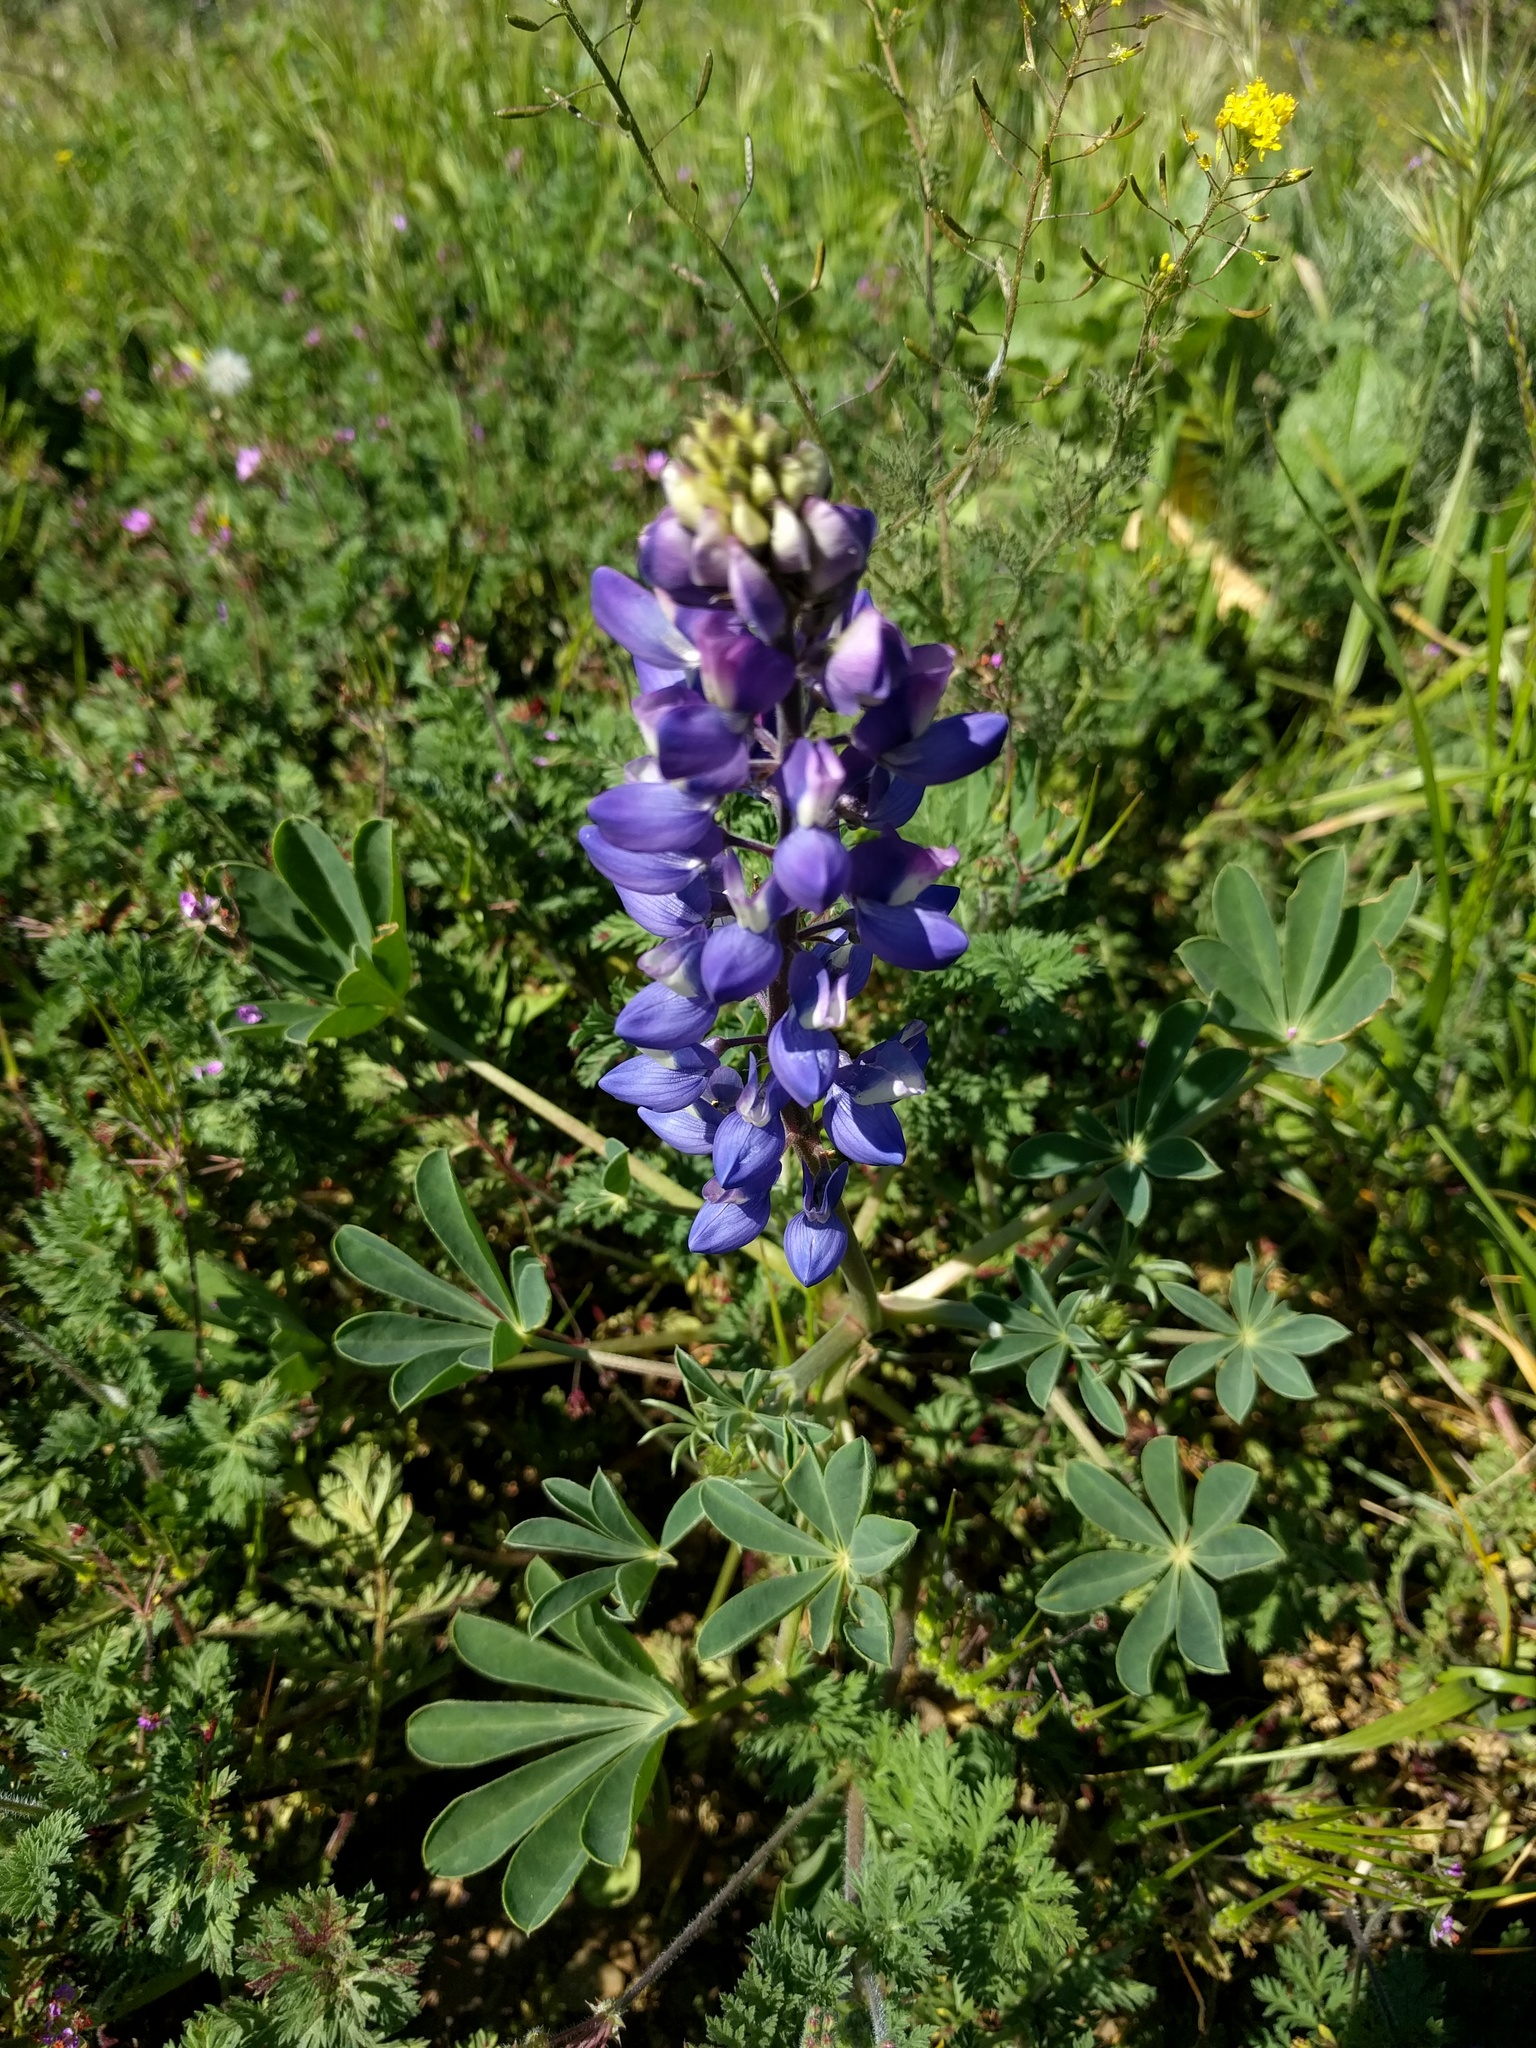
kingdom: Plantae
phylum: Tracheophyta
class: Magnoliopsida
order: Fabales
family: Fabaceae
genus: Lupinus
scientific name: Lupinus succulentus
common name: Arroyo lupine
